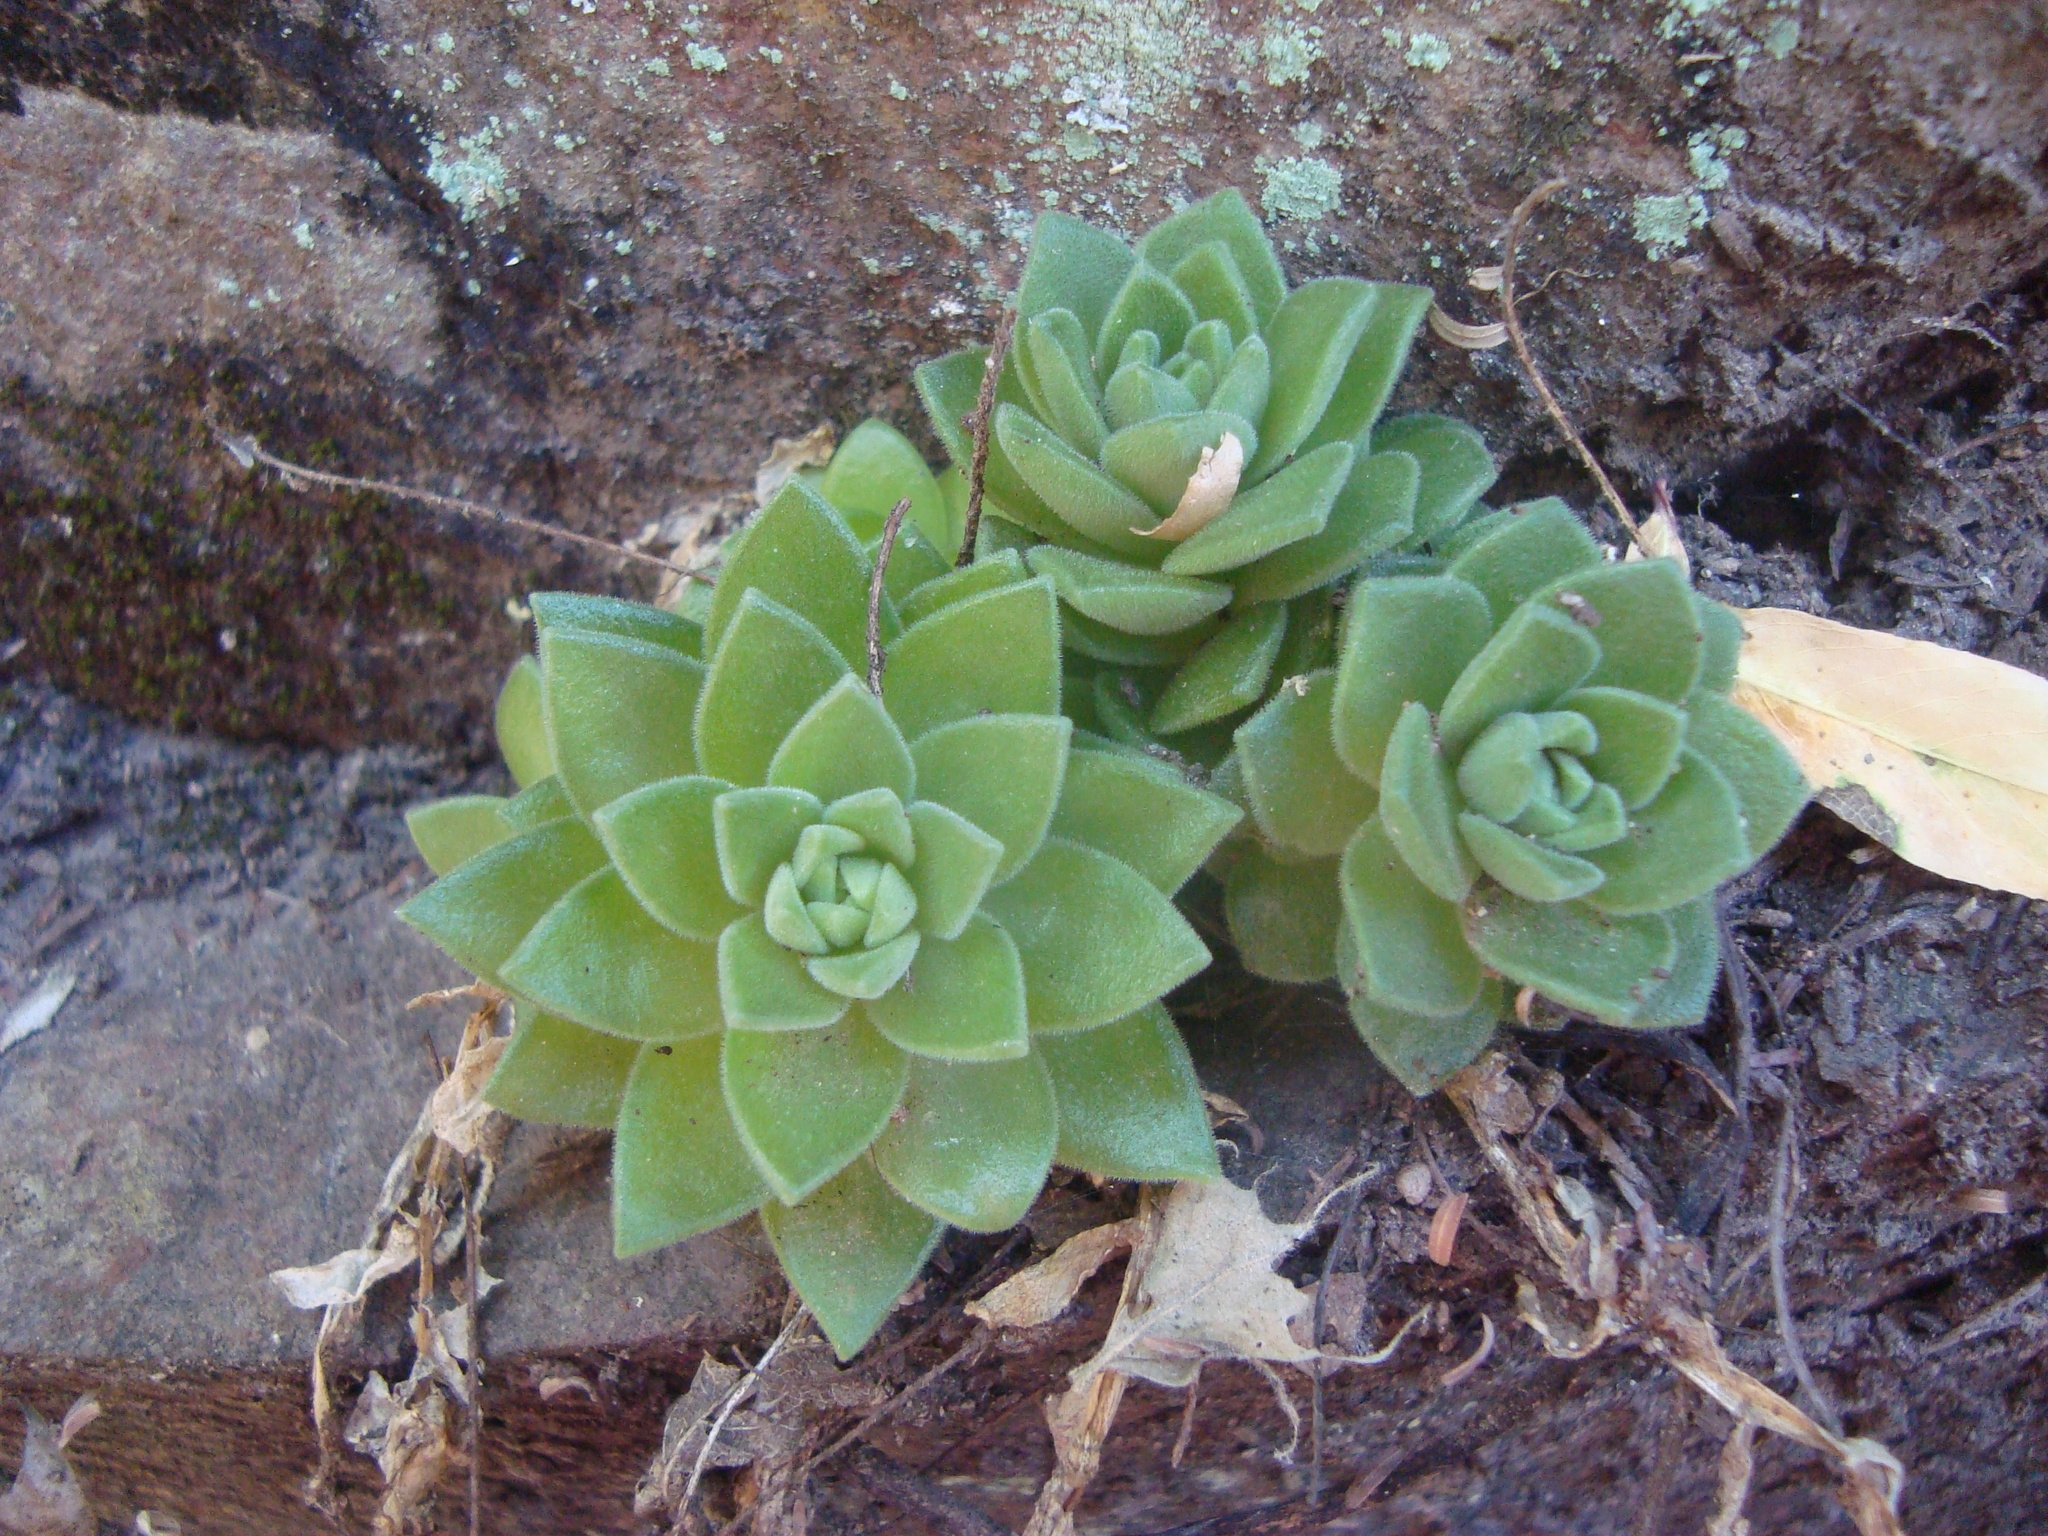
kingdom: Plantae
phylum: Tracheophyta
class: Magnoliopsida
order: Saxifragales
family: Crassulaceae
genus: Sedum
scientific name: Sedum ebracteatum
